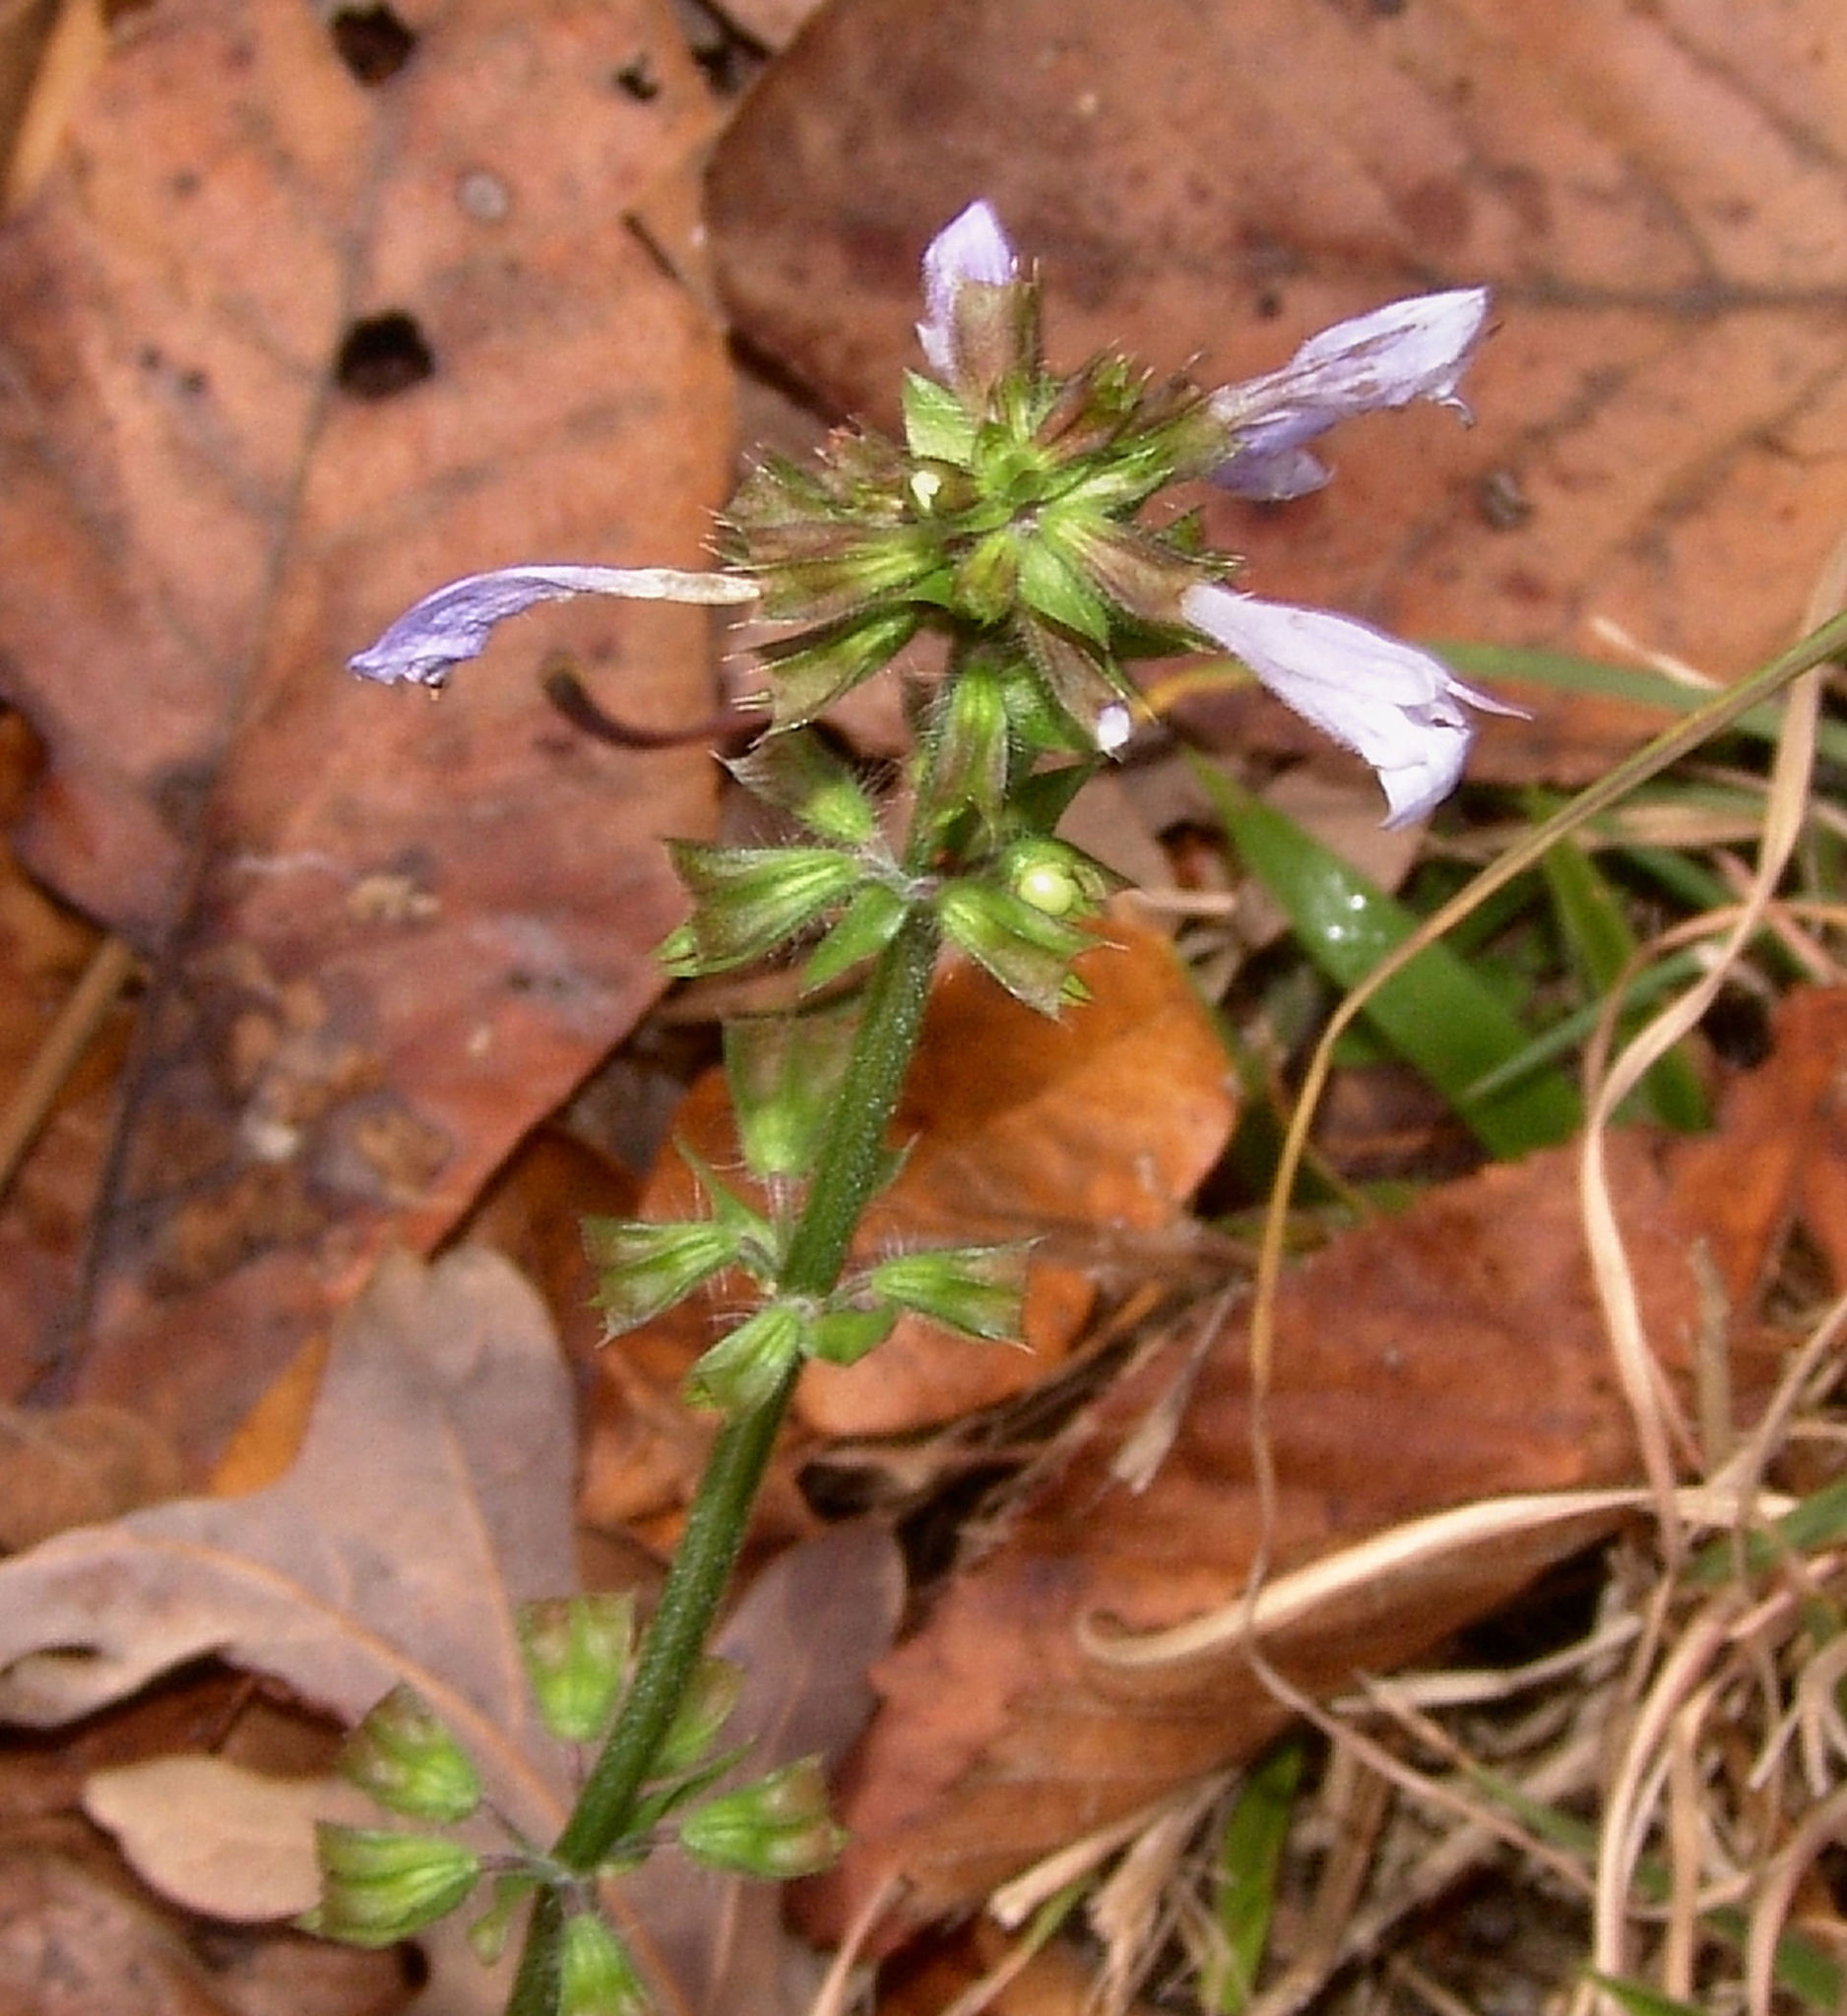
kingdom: Plantae
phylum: Tracheophyta
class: Magnoliopsida
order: Lamiales
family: Lamiaceae
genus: Salvia
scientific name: Salvia lyrata
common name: Cancerweed
